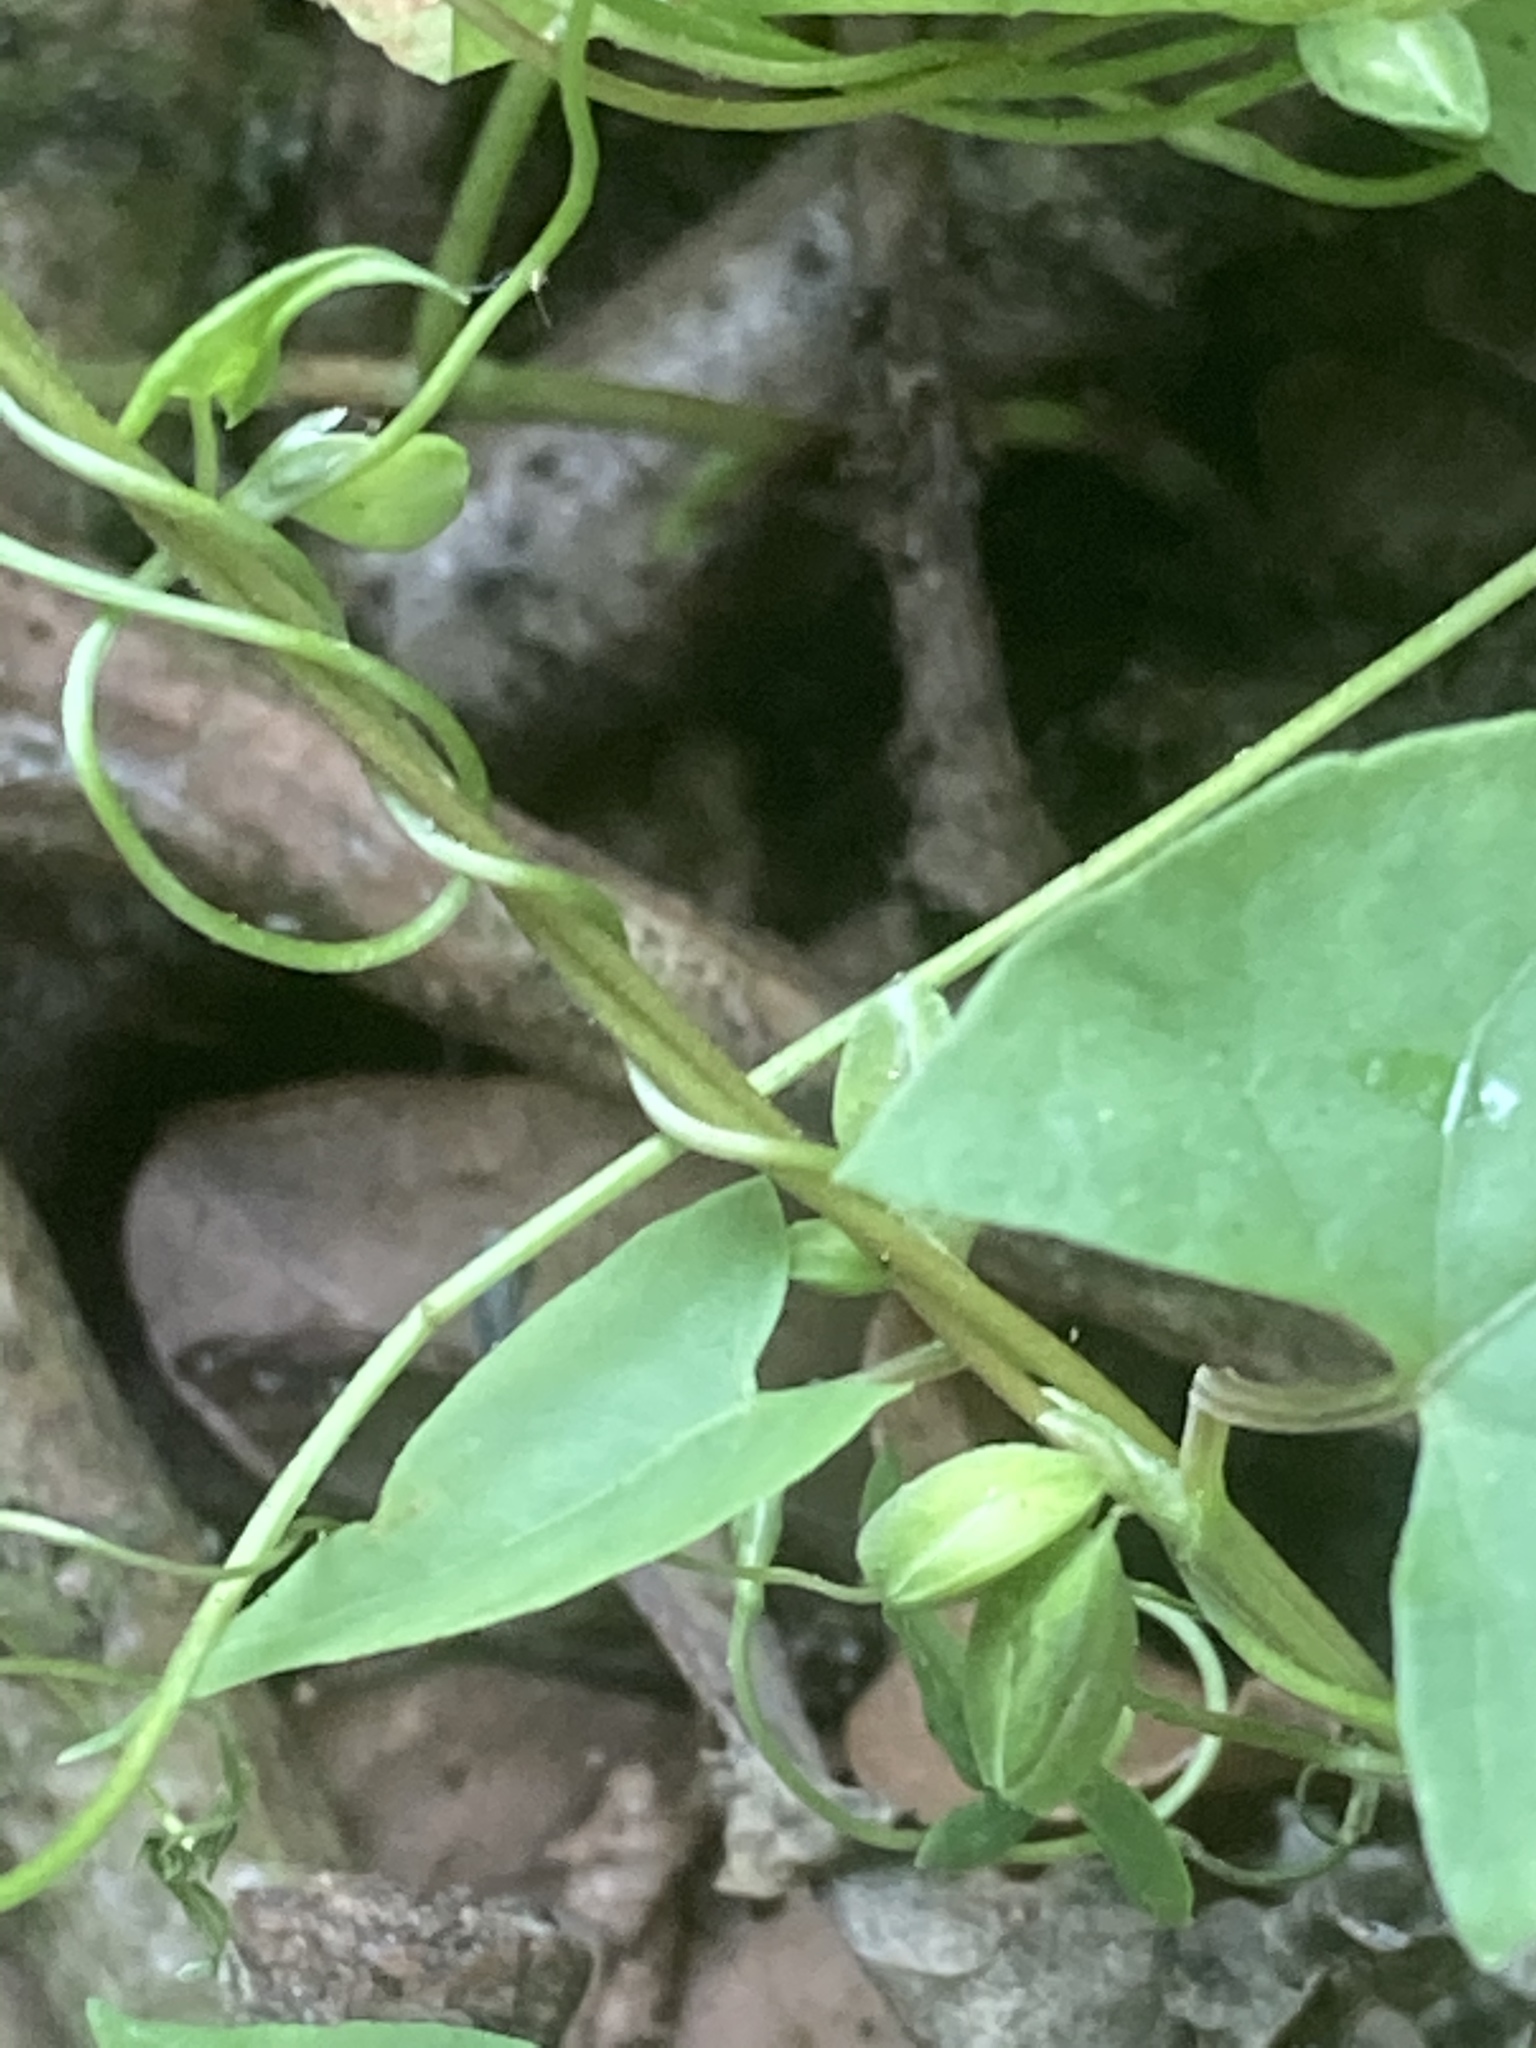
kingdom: Plantae
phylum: Tracheophyta
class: Magnoliopsida
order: Caryophyllales
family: Polygonaceae
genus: Fallopia
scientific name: Fallopia convolvulus
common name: Black bindweed
